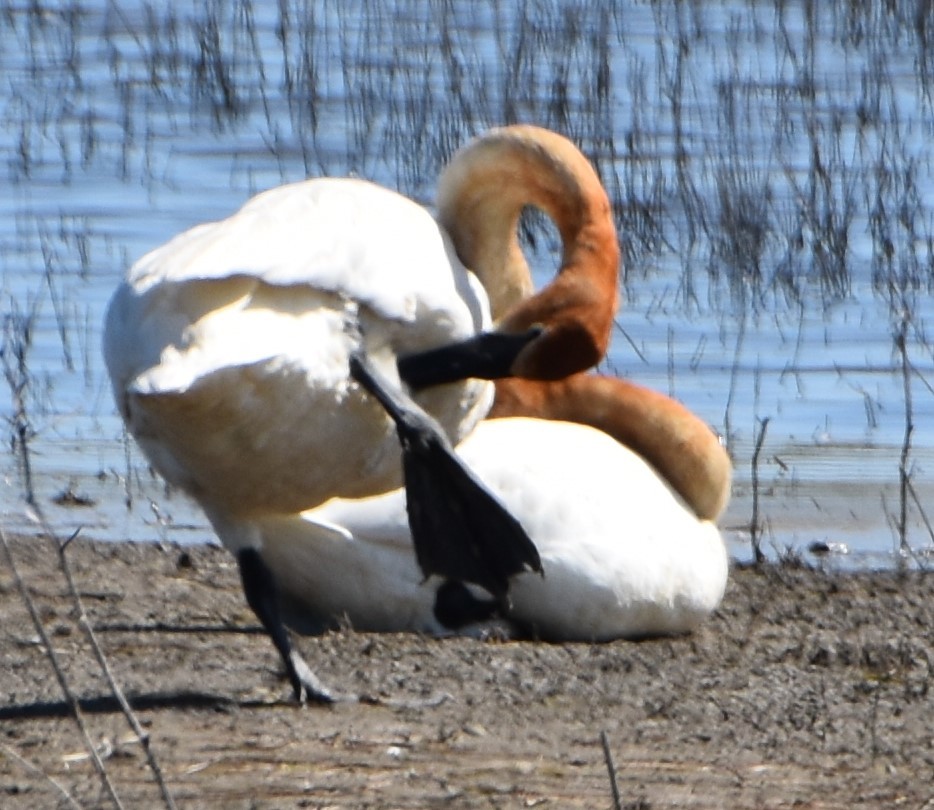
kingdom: Animalia
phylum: Chordata
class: Aves
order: Anseriformes
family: Anatidae
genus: Cygnus
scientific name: Cygnus buccinator
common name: Trumpeter swan
